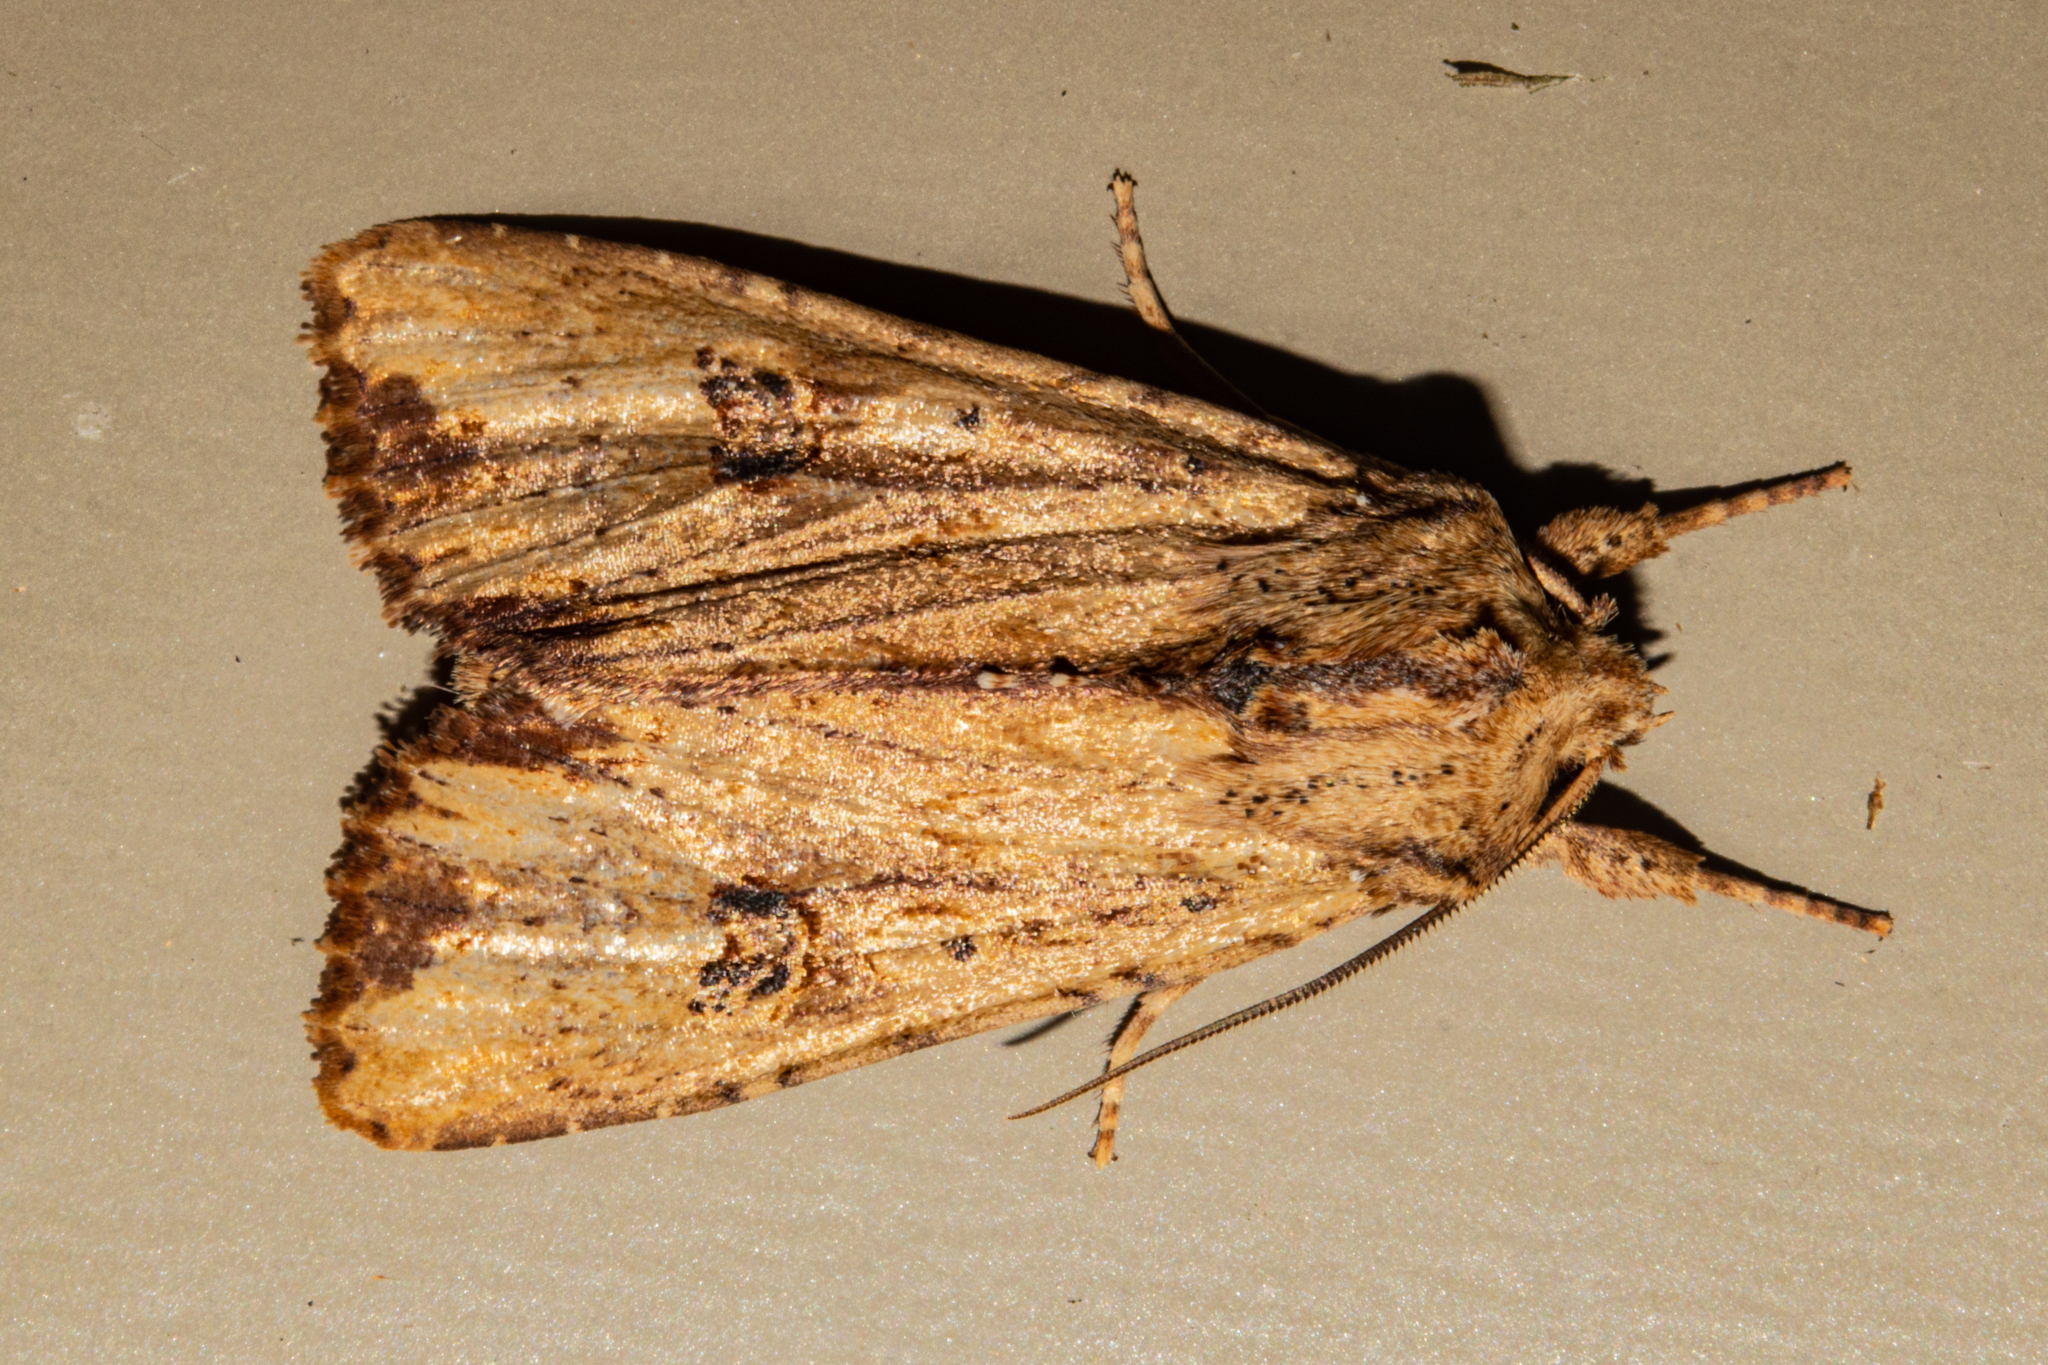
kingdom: Animalia
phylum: Arthropoda
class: Insecta
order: Lepidoptera
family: Noctuidae
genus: Ichneutica
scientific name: Ichneutica
